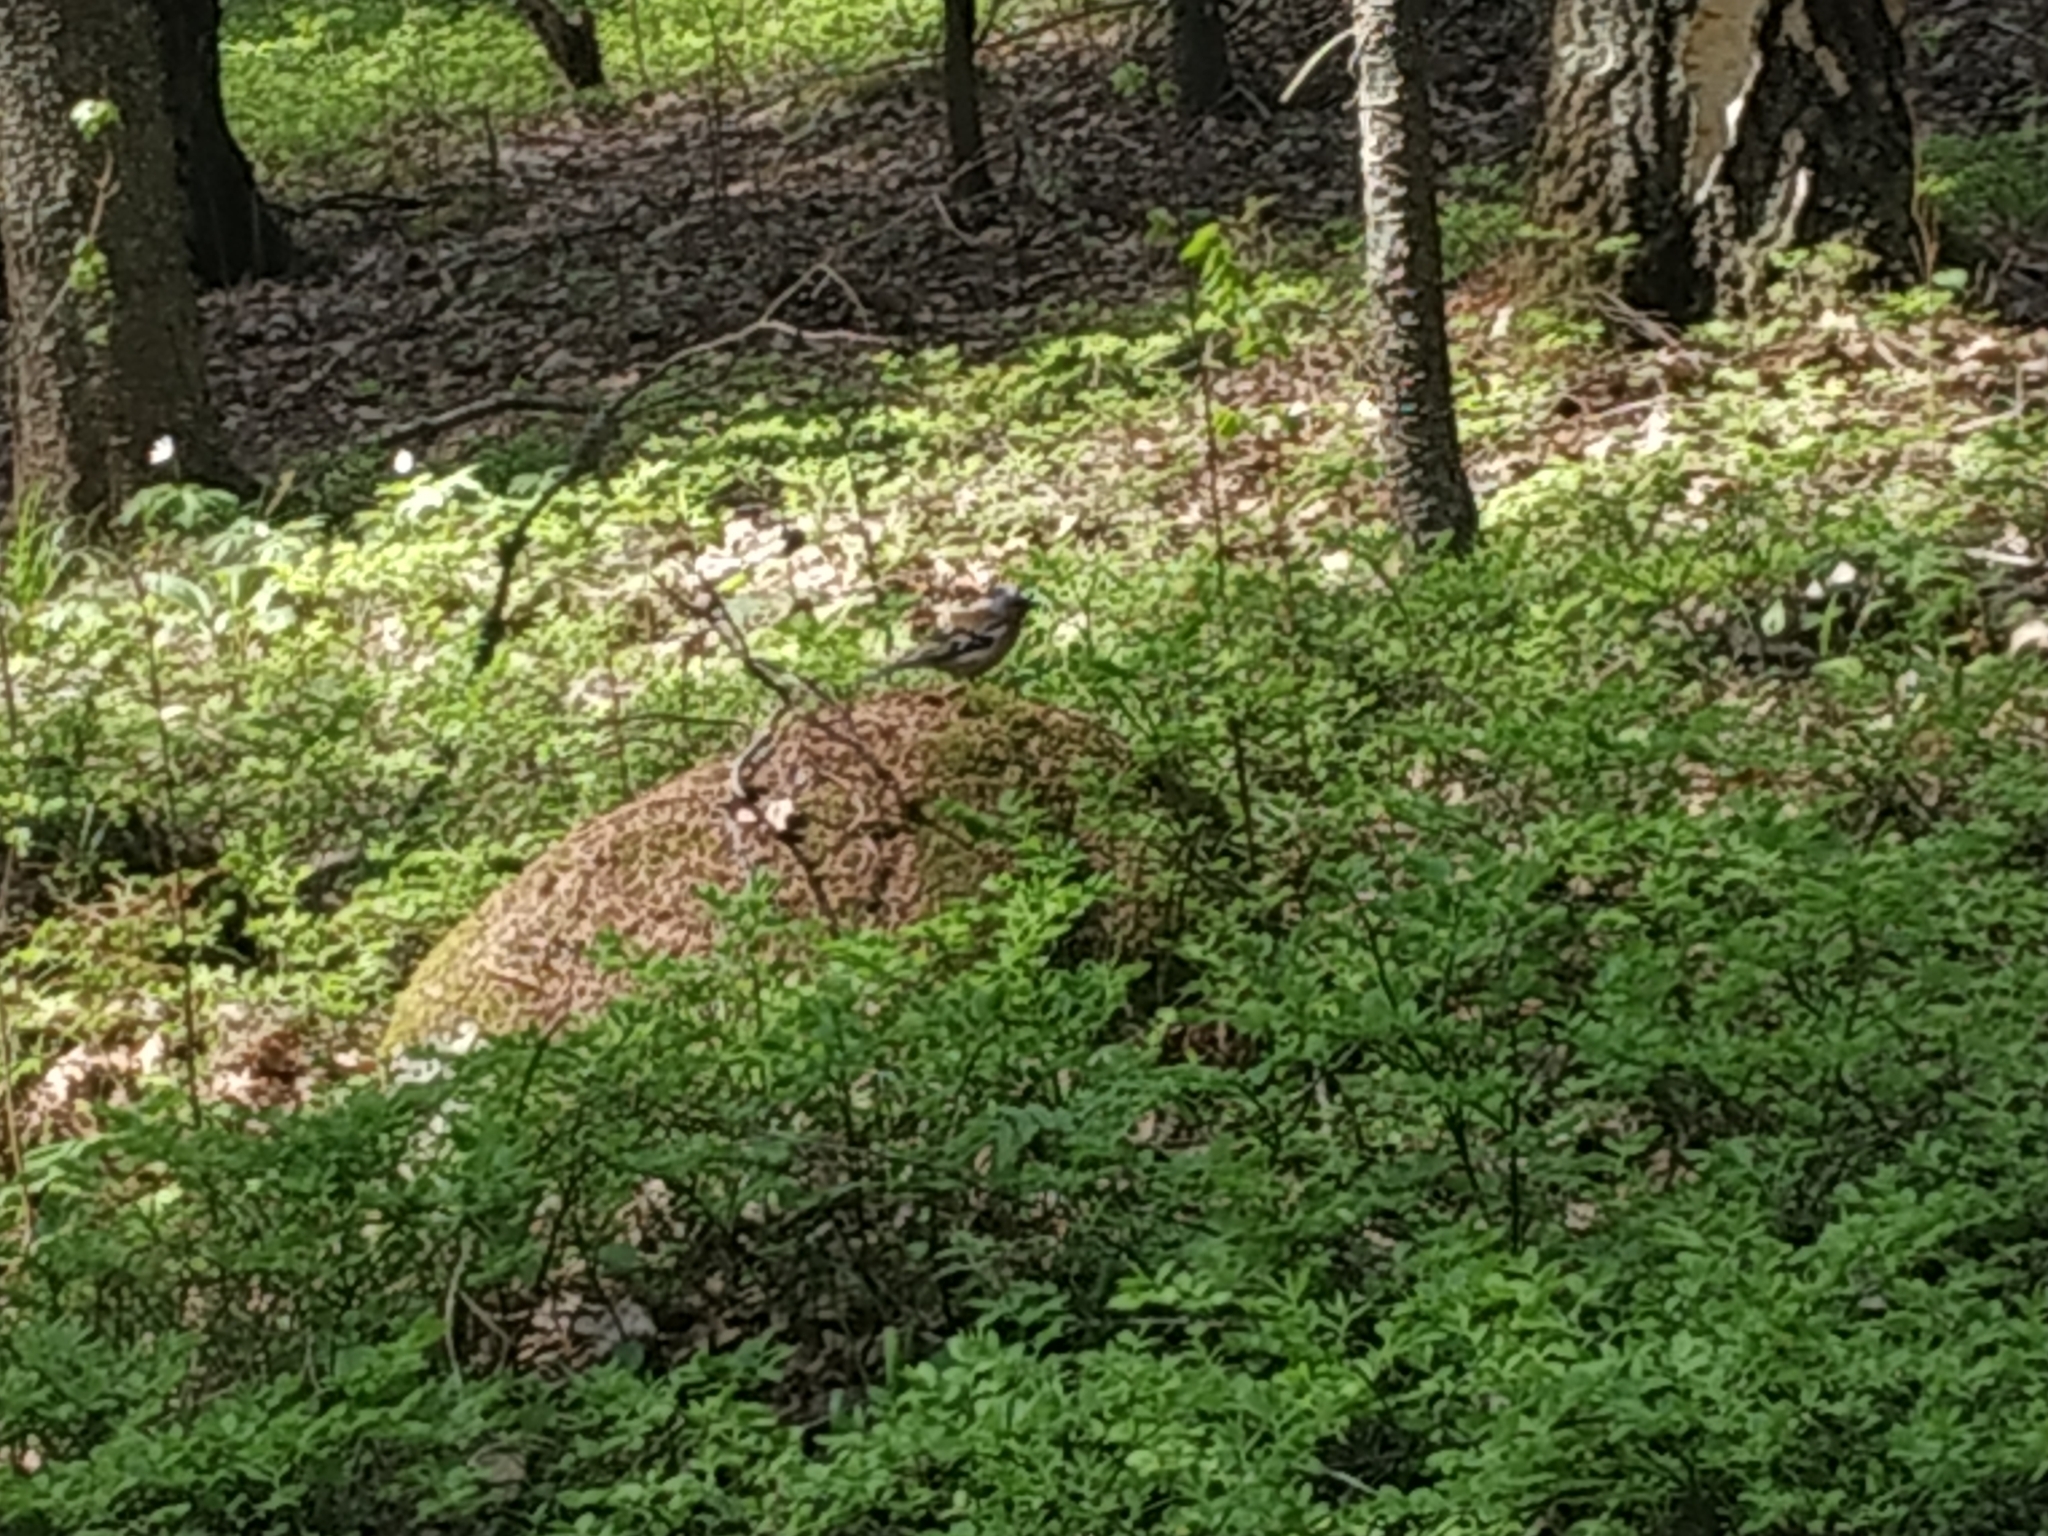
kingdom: Animalia
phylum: Chordata
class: Aves
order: Passeriformes
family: Fringillidae
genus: Fringilla
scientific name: Fringilla coelebs
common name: Common chaffinch
